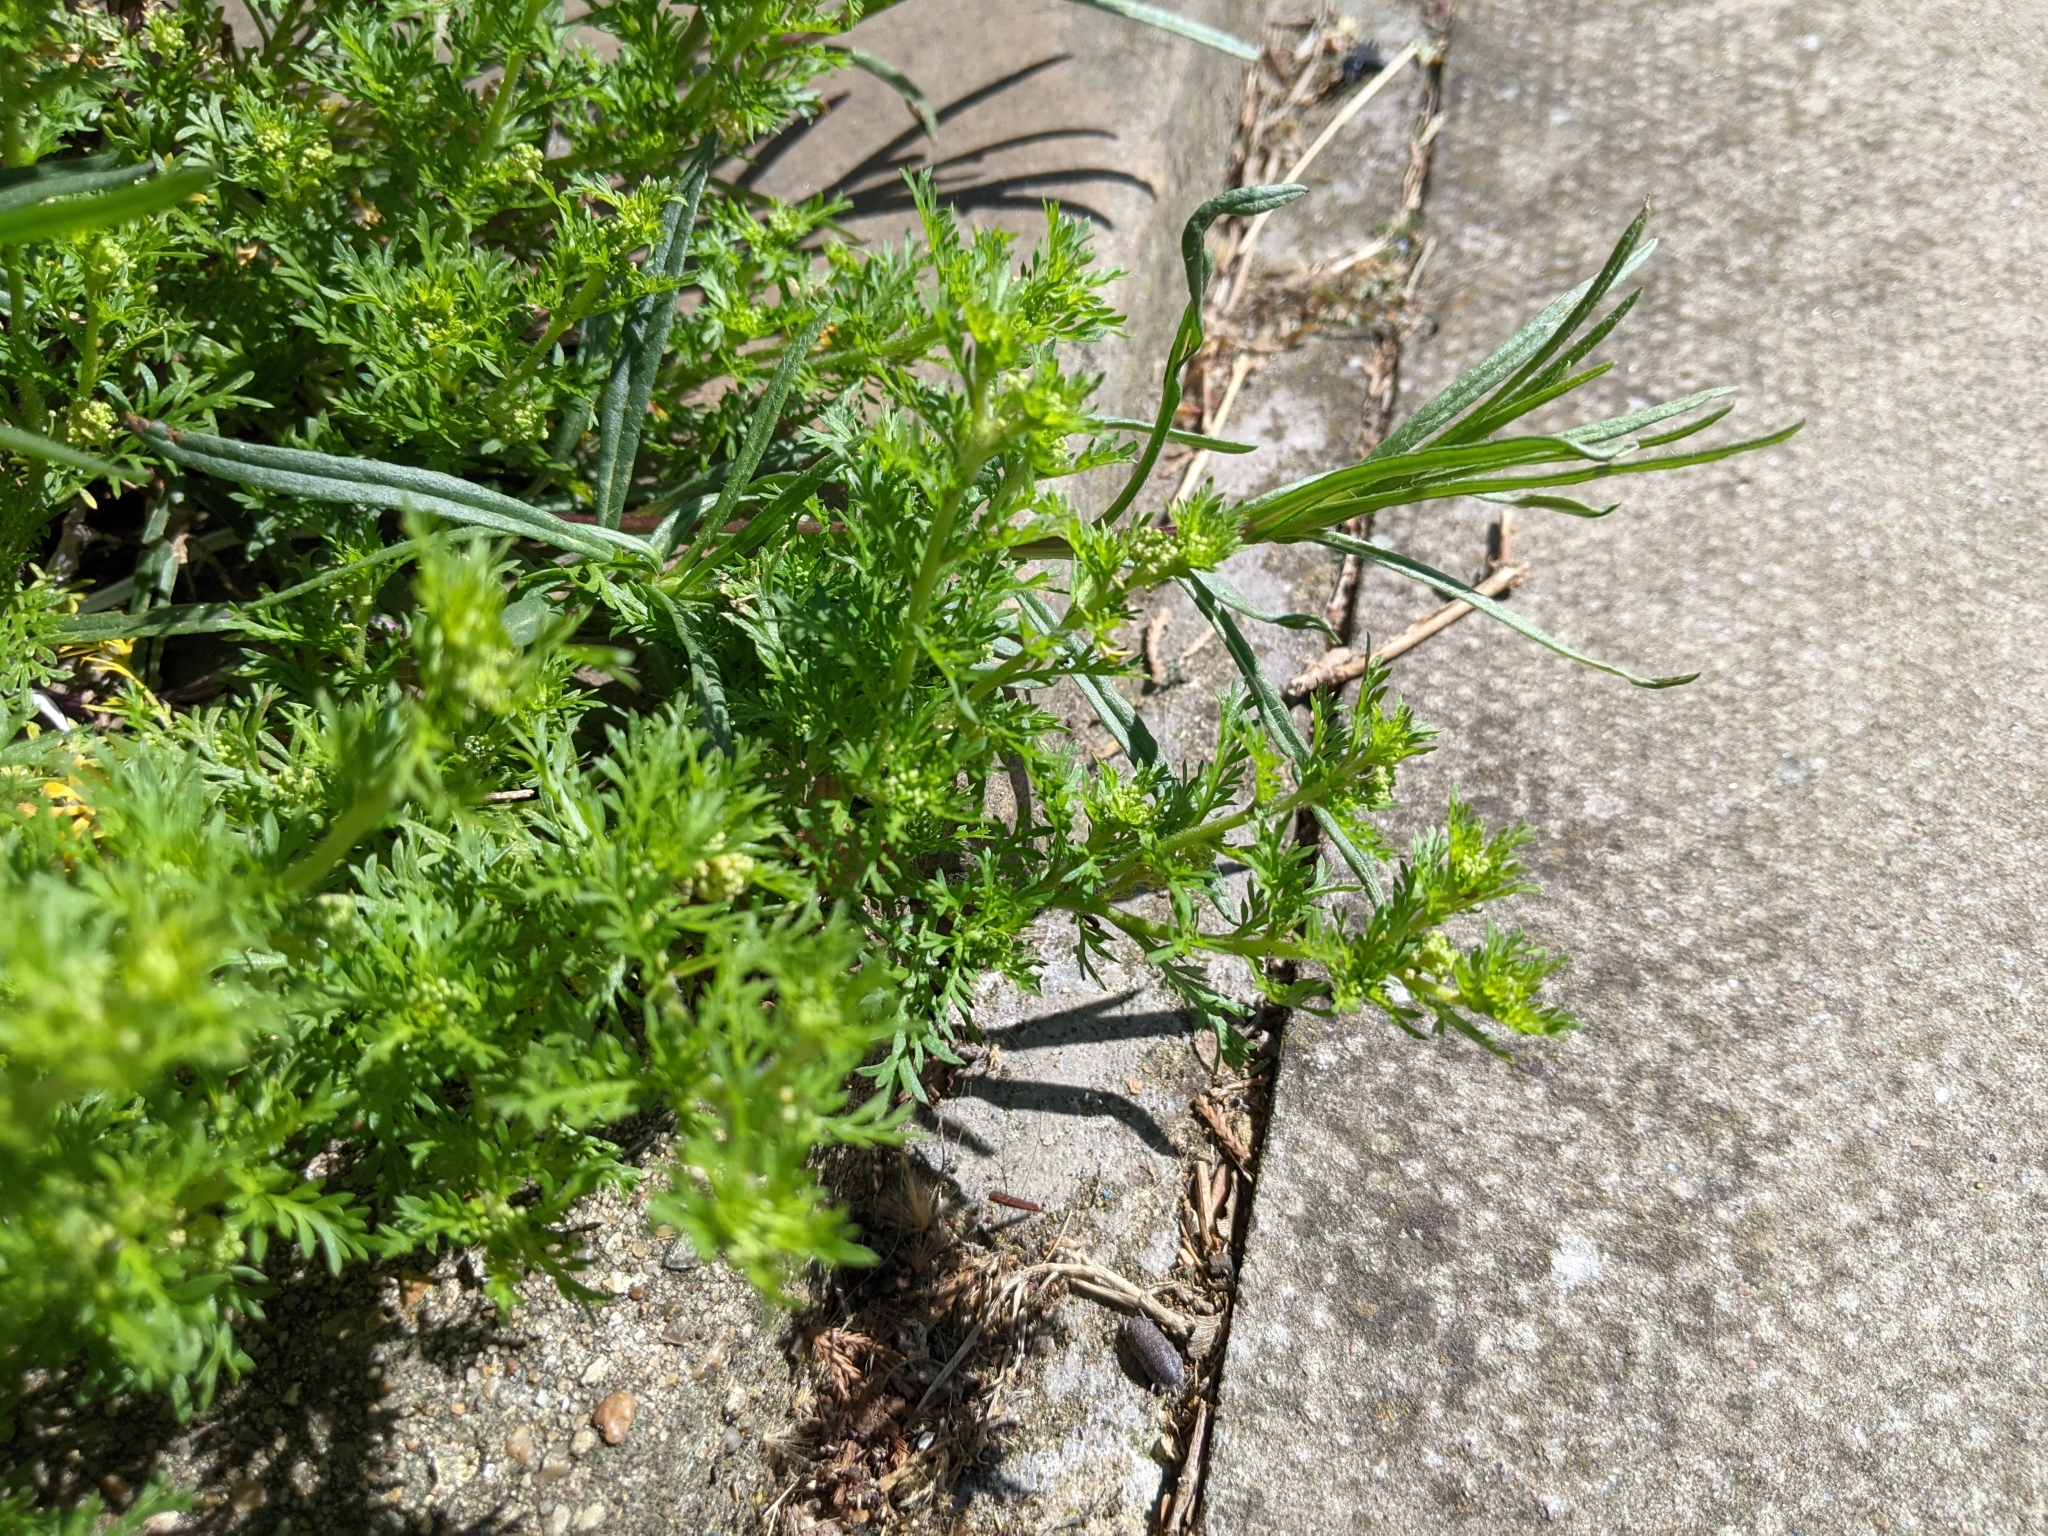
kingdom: Plantae
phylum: Tracheophyta
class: Magnoliopsida
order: Brassicales
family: Brassicaceae
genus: Lepidium
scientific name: Lepidium didymum
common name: Lesser swinecress
